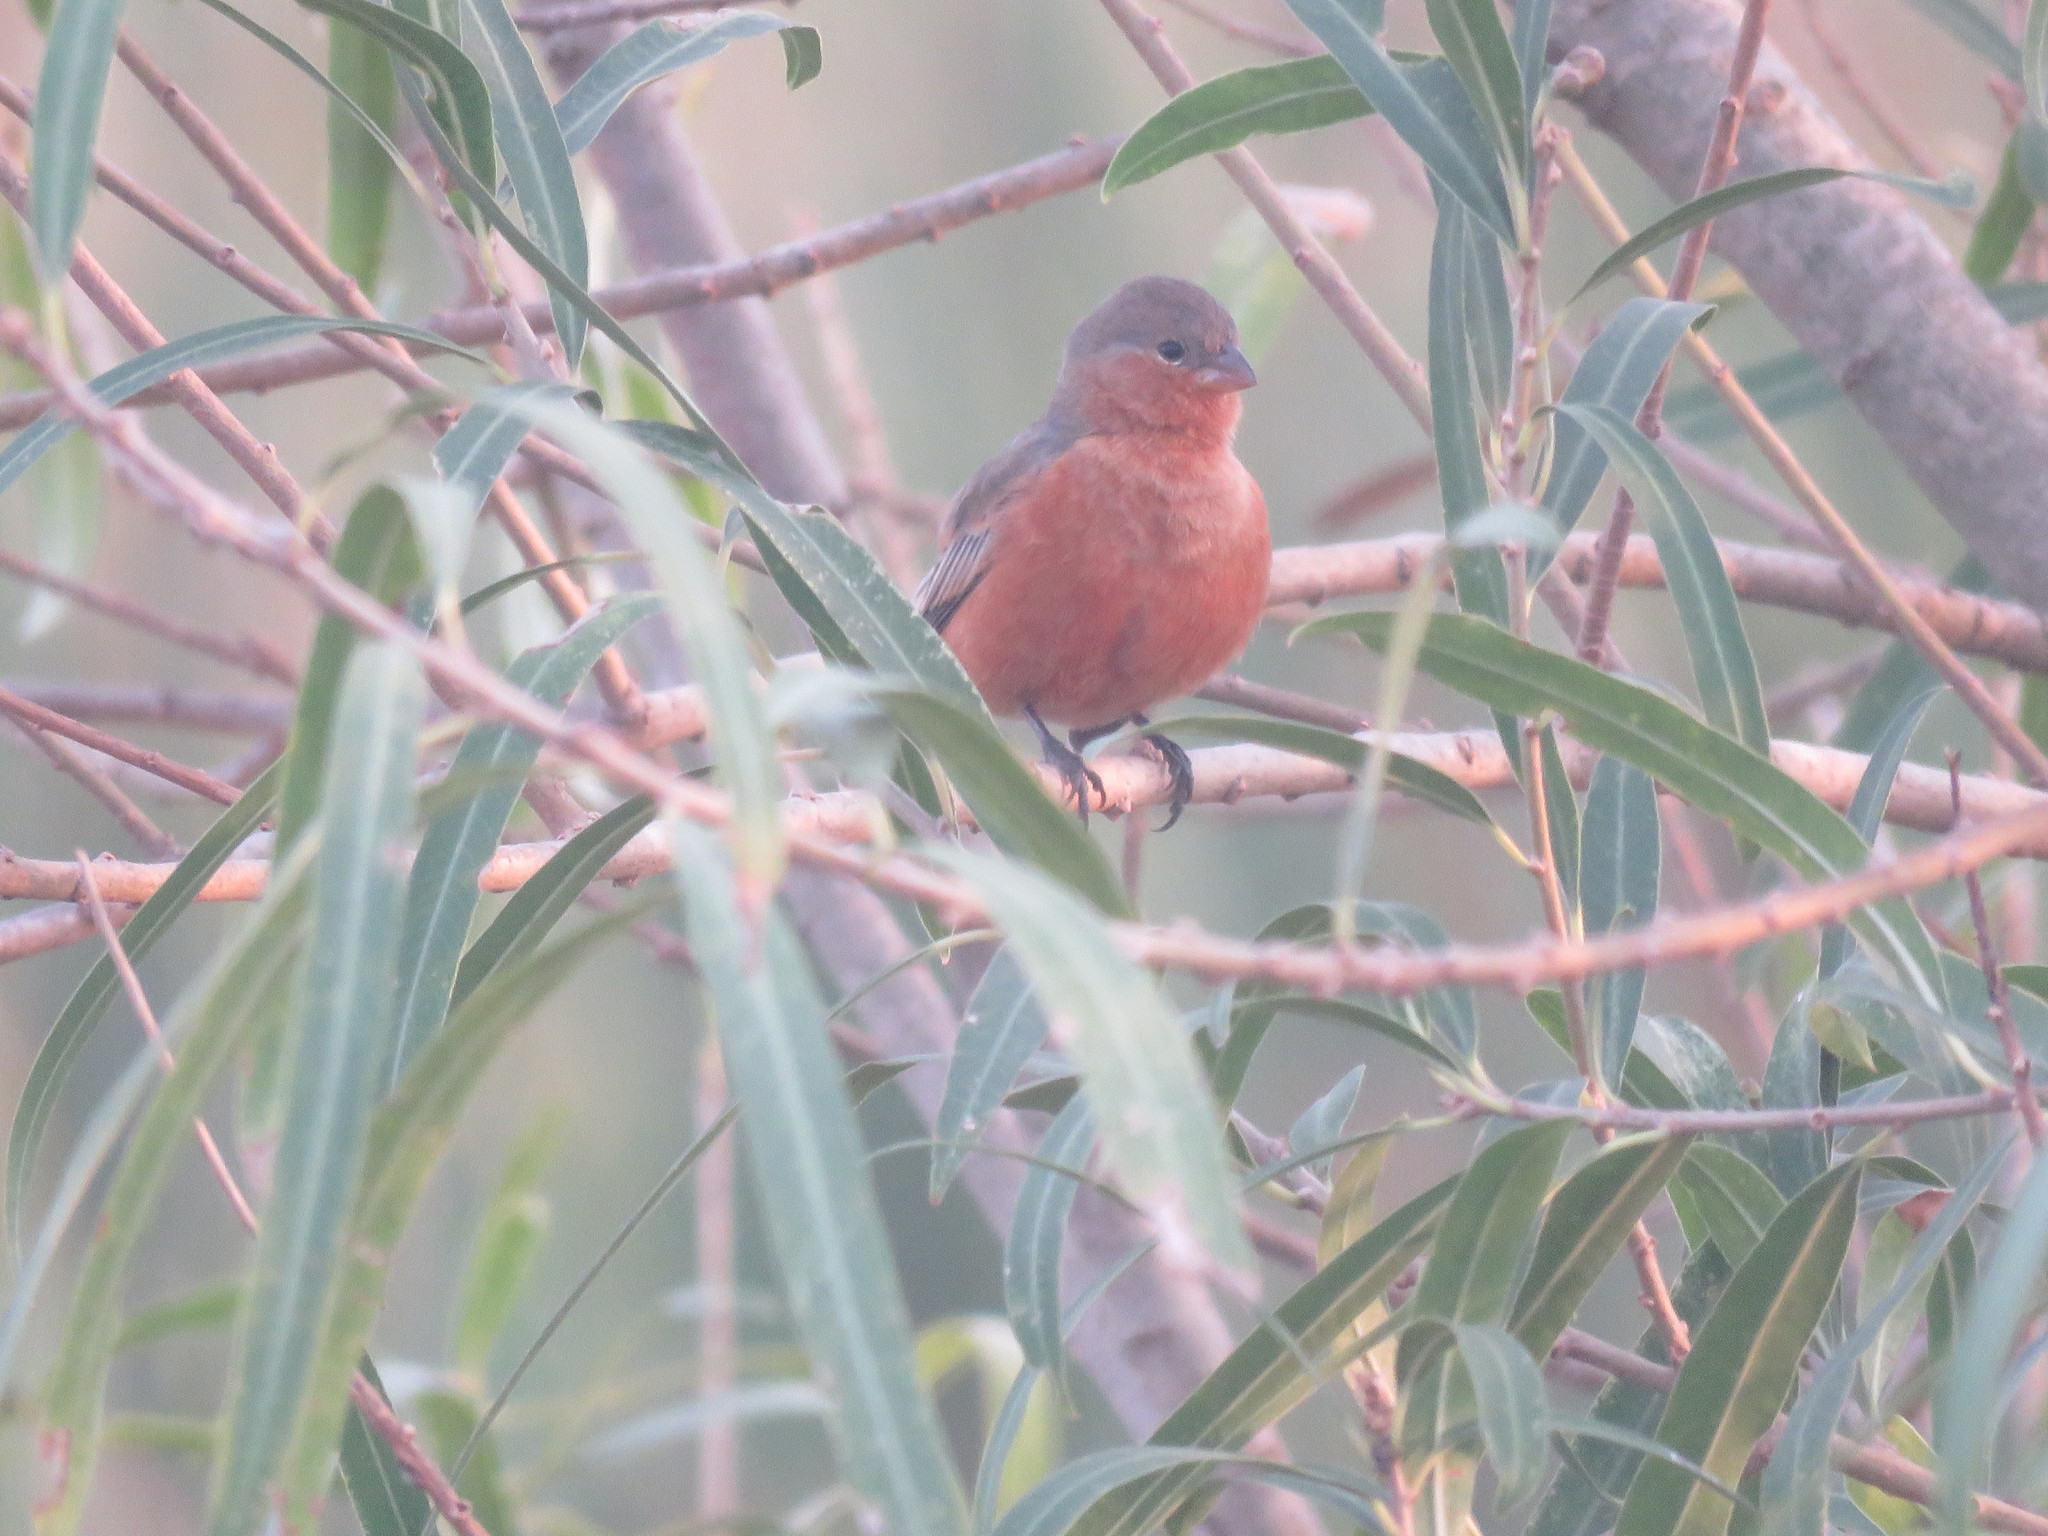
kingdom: Animalia
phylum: Chordata
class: Aves
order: Passeriformes
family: Thraupidae
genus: Sporophila
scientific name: Sporophila hypoxantha
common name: Tawny-bellied seedeater
